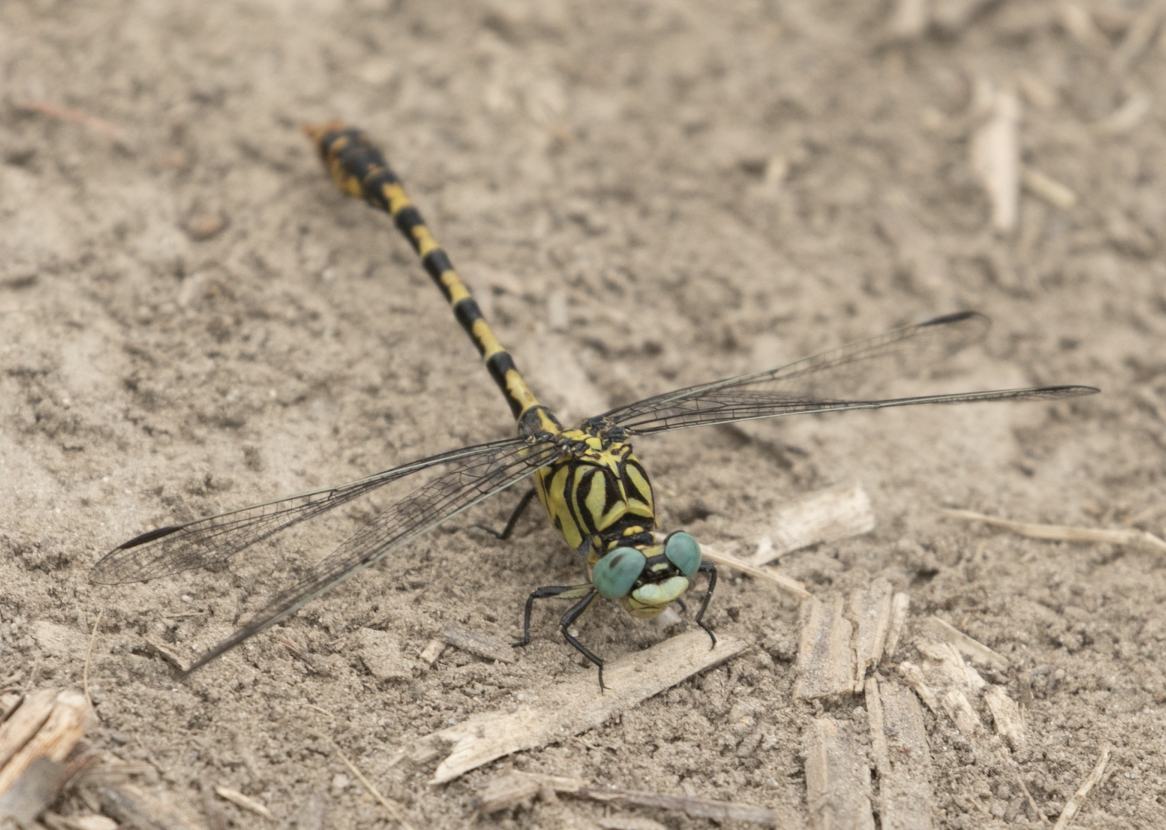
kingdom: Animalia
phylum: Arthropoda
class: Insecta
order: Odonata
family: Gomphidae
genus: Onychogomphus
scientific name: Onychogomphus forcipatus
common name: Small pincertail
